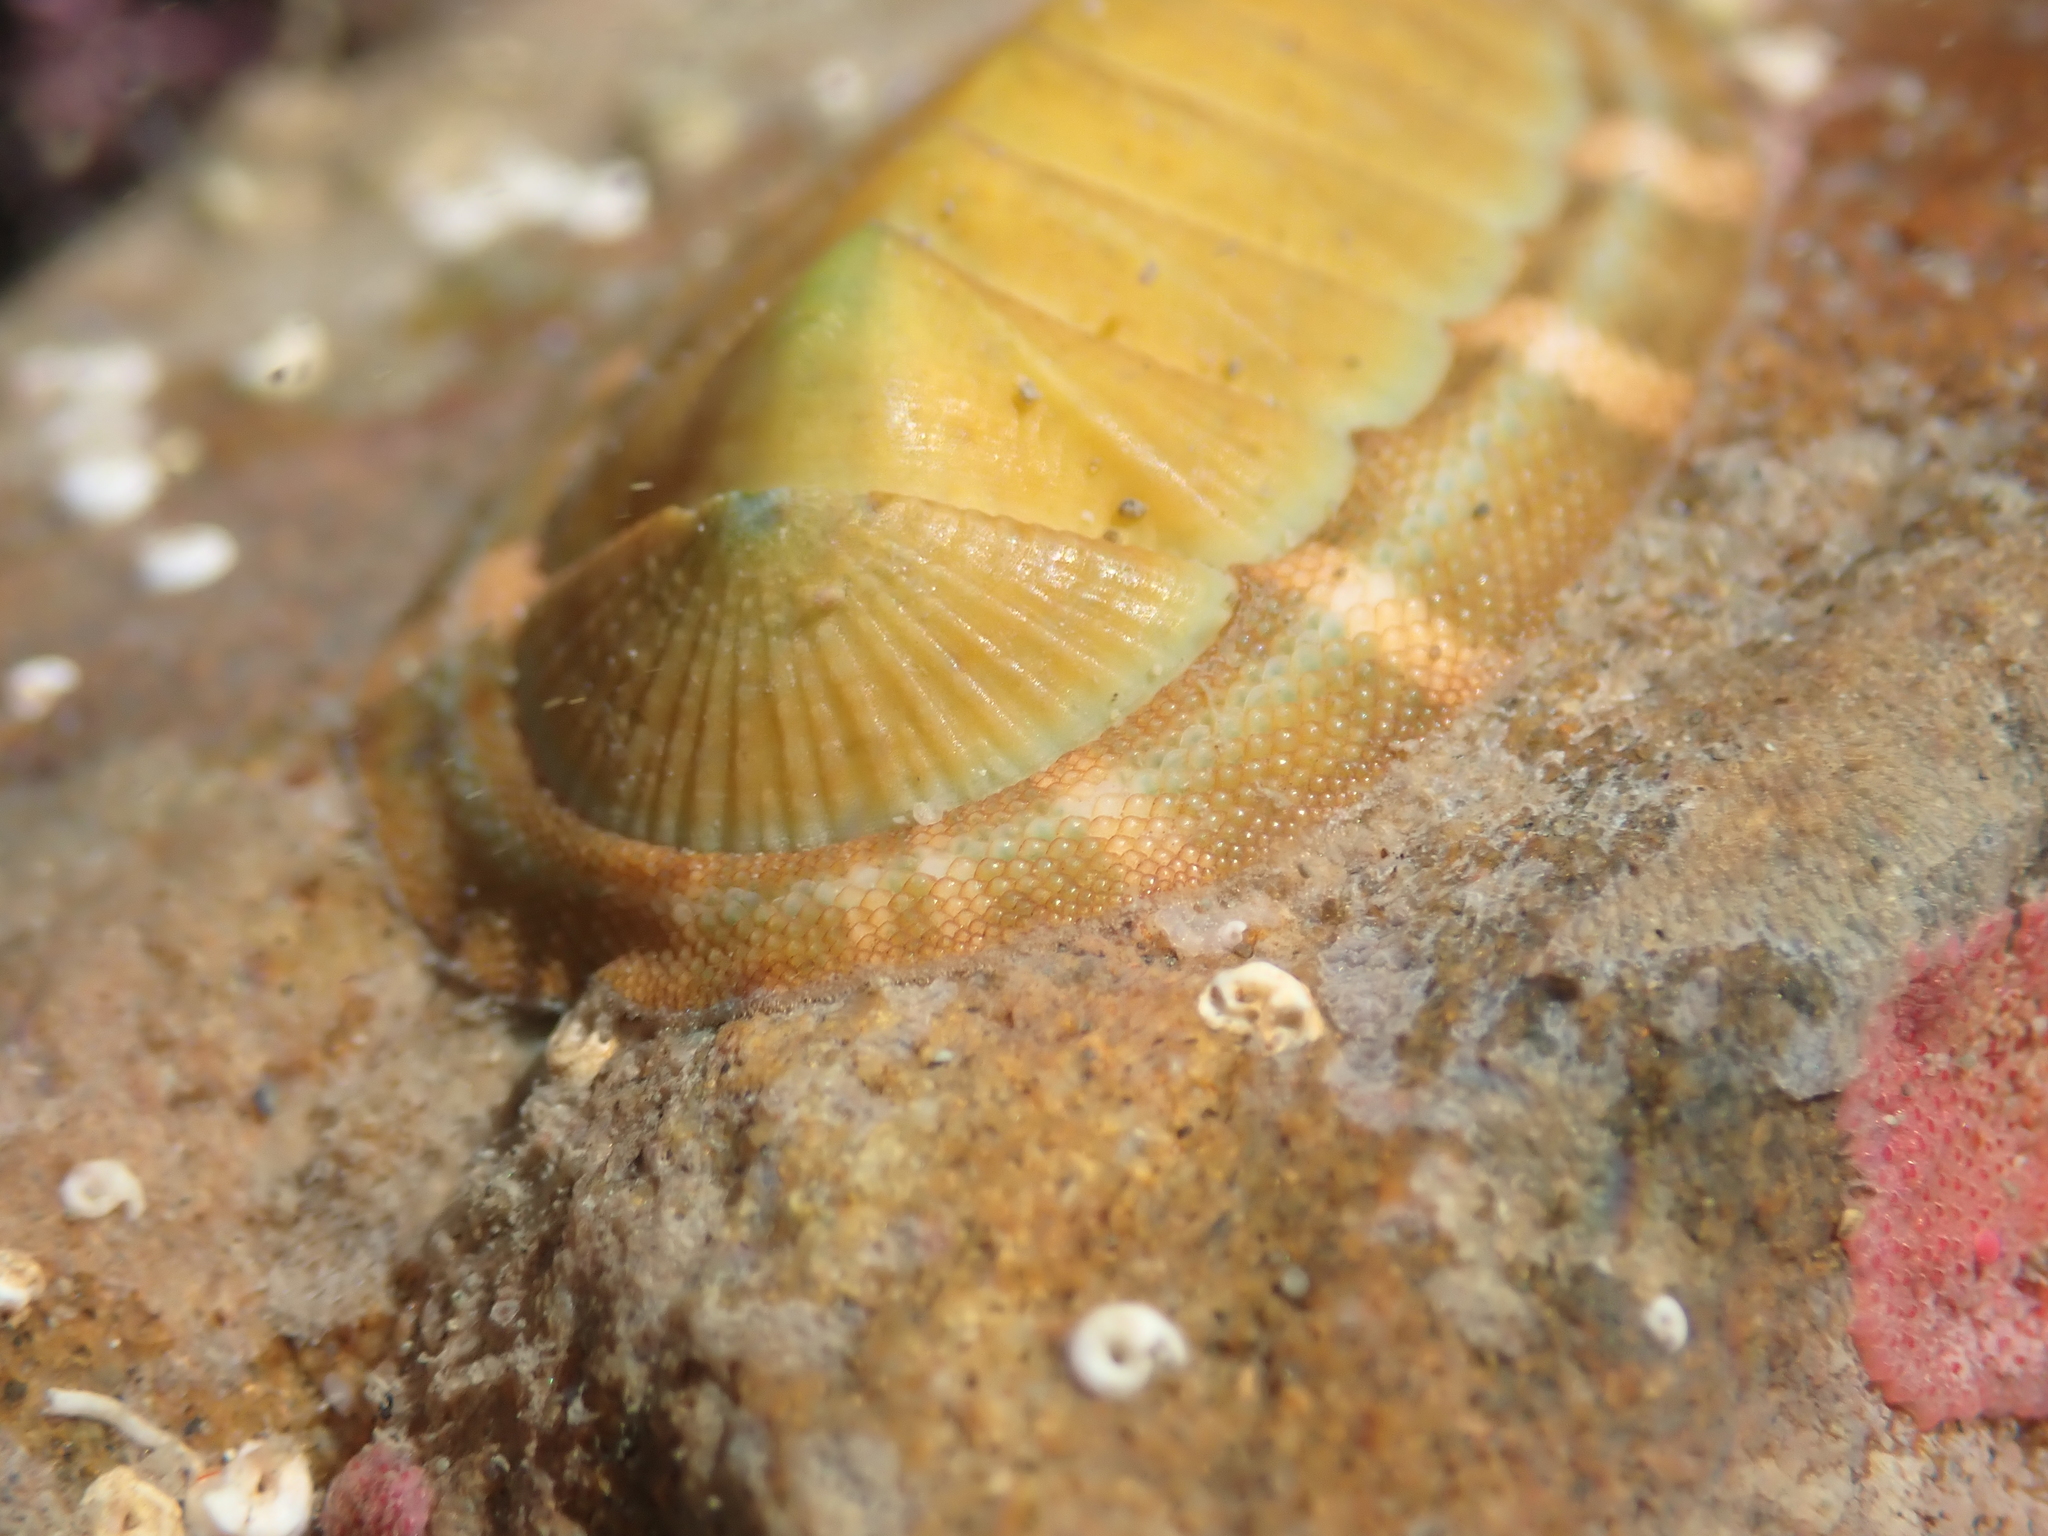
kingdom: Animalia
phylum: Mollusca
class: Polyplacophora
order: Chitonida
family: Chitonidae
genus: Rhyssoplax
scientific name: Rhyssoplax aerea
